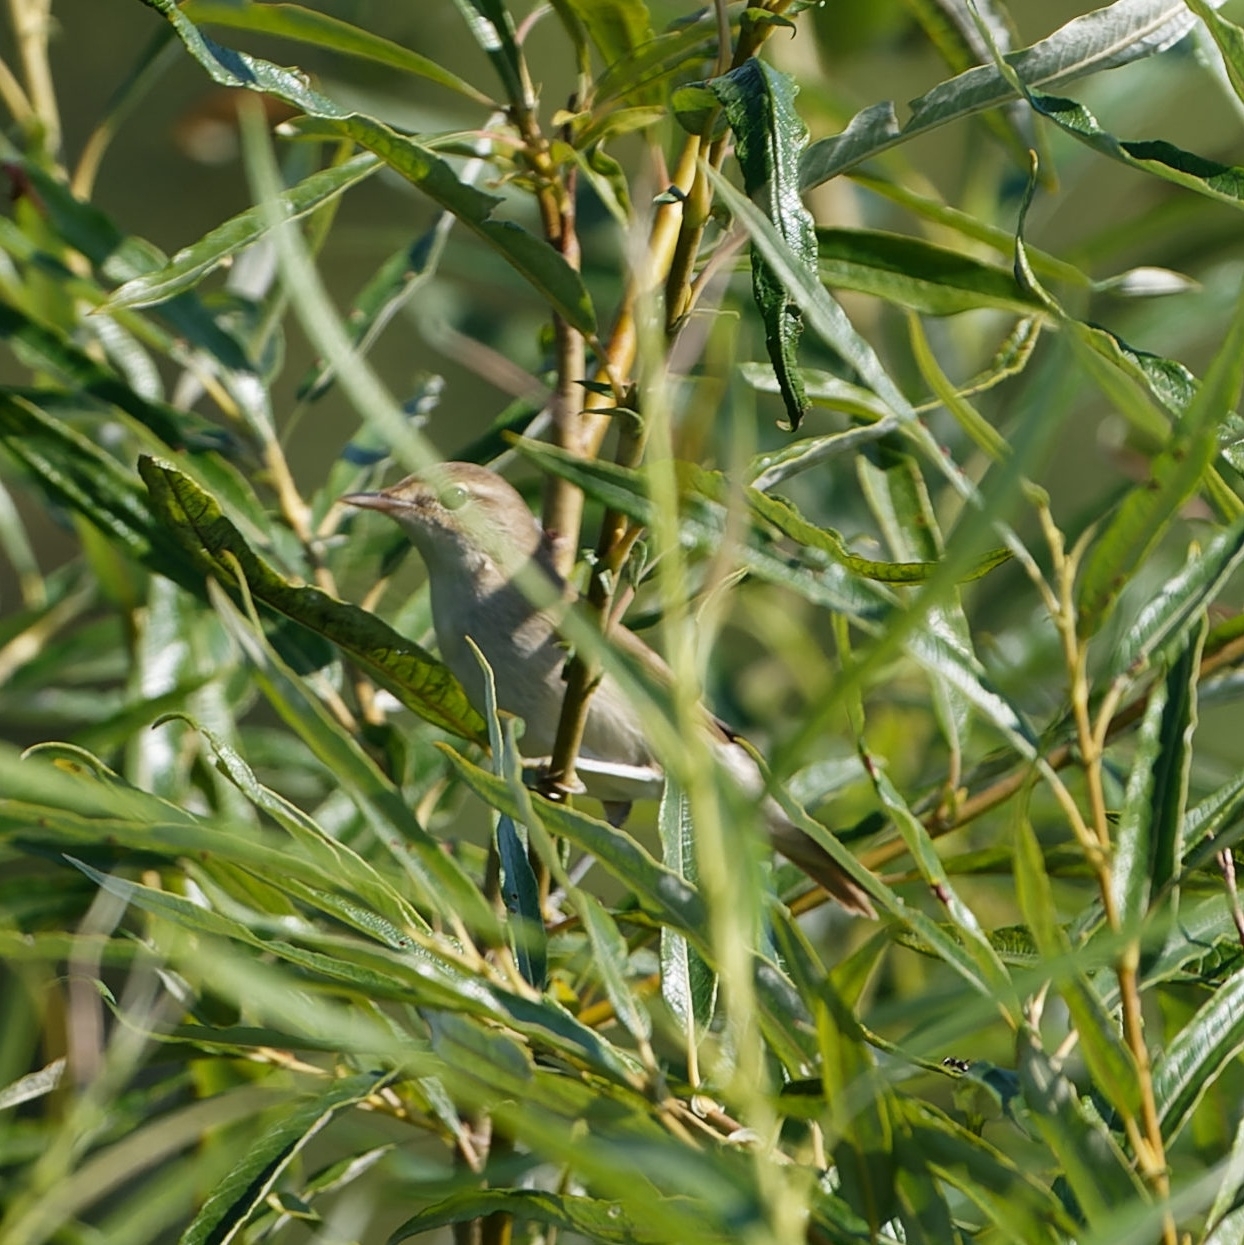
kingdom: Animalia
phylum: Chordata
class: Aves
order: Passeriformes
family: Acrocephalidae
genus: Acrocephalus
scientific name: Acrocephalus dumetorum
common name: Blyth's reed warbler
